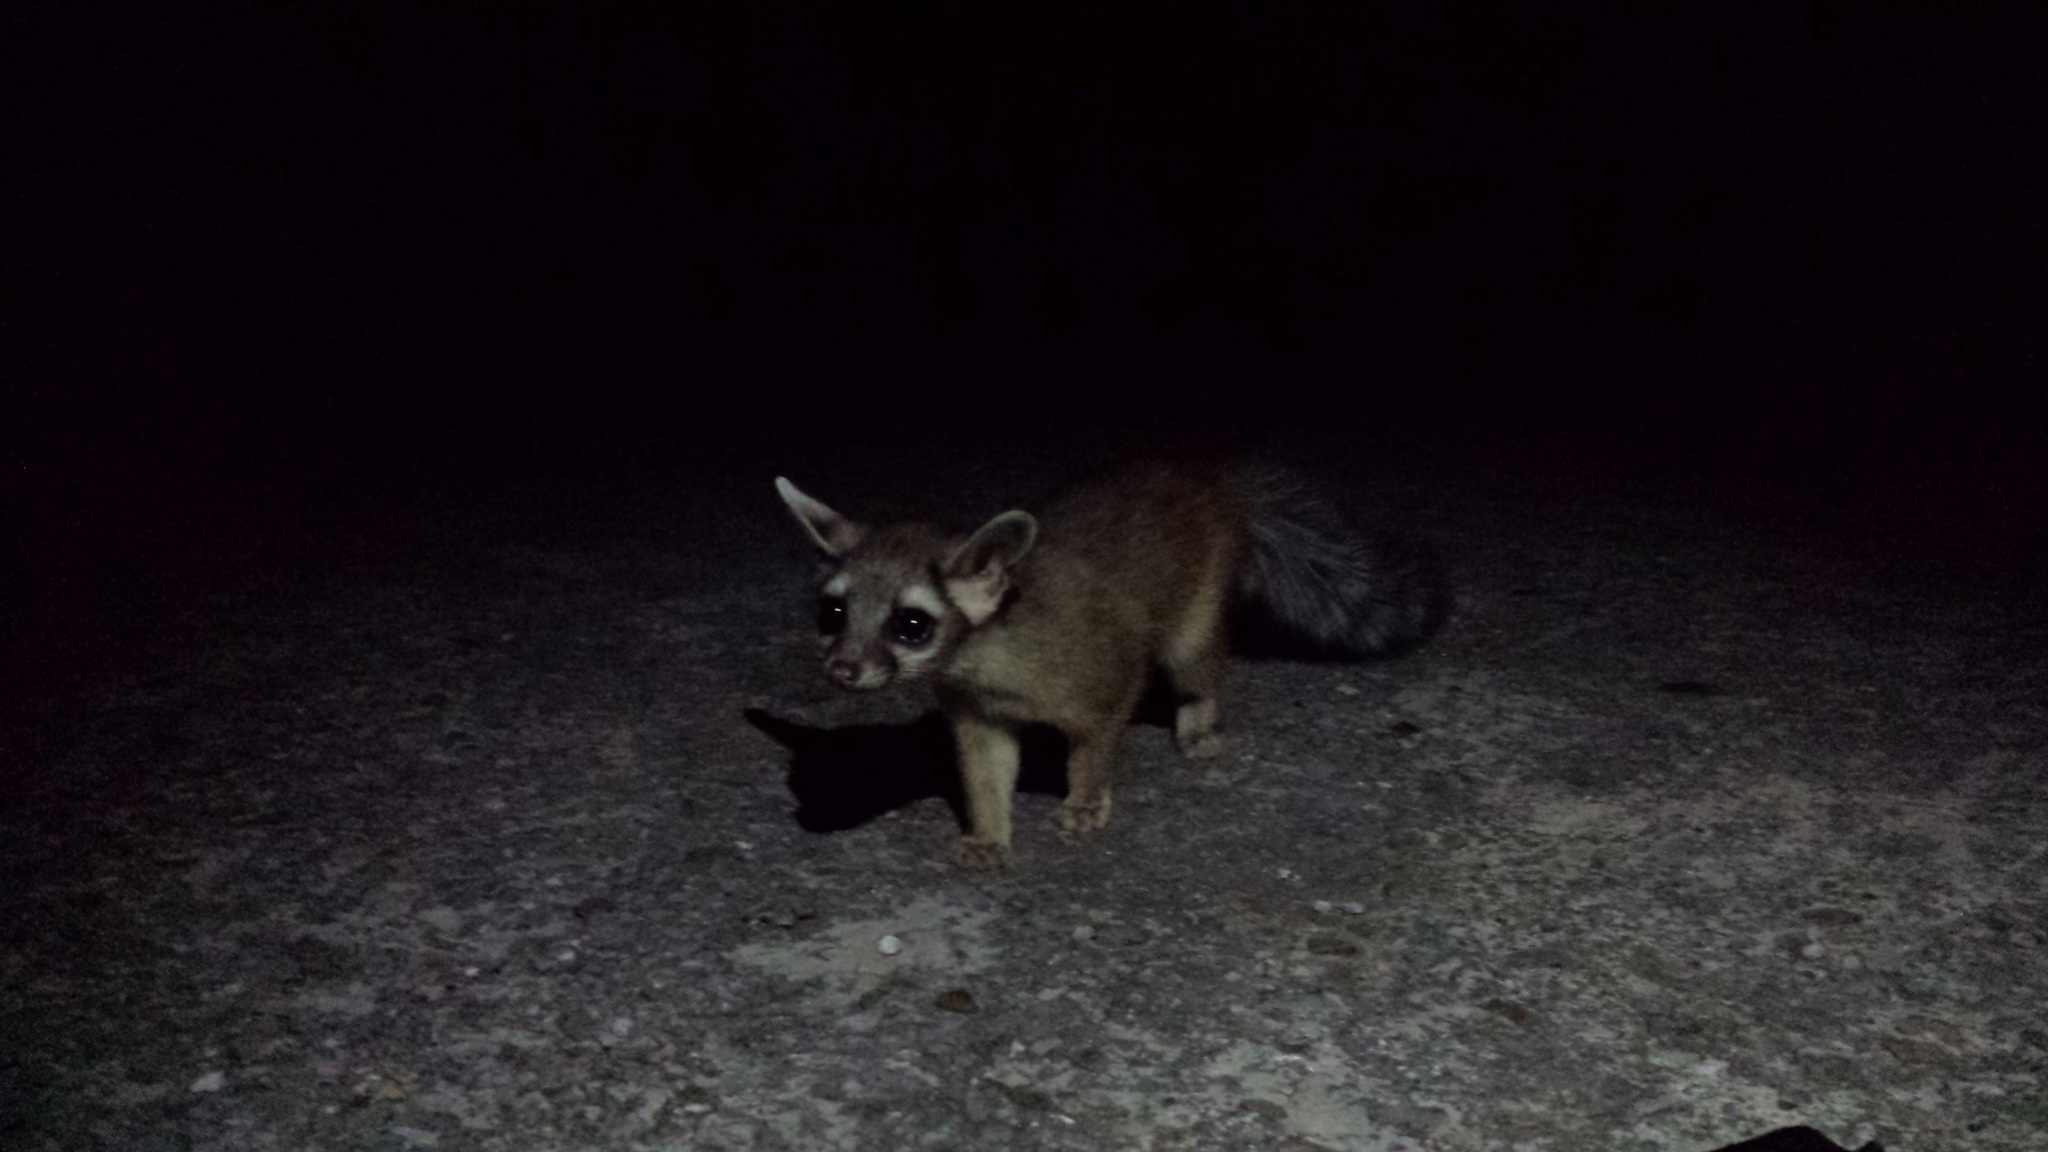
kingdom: Animalia
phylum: Chordata
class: Mammalia
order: Carnivora
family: Procyonidae
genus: Bassariscus
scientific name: Bassariscus astutus
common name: Ringtail
